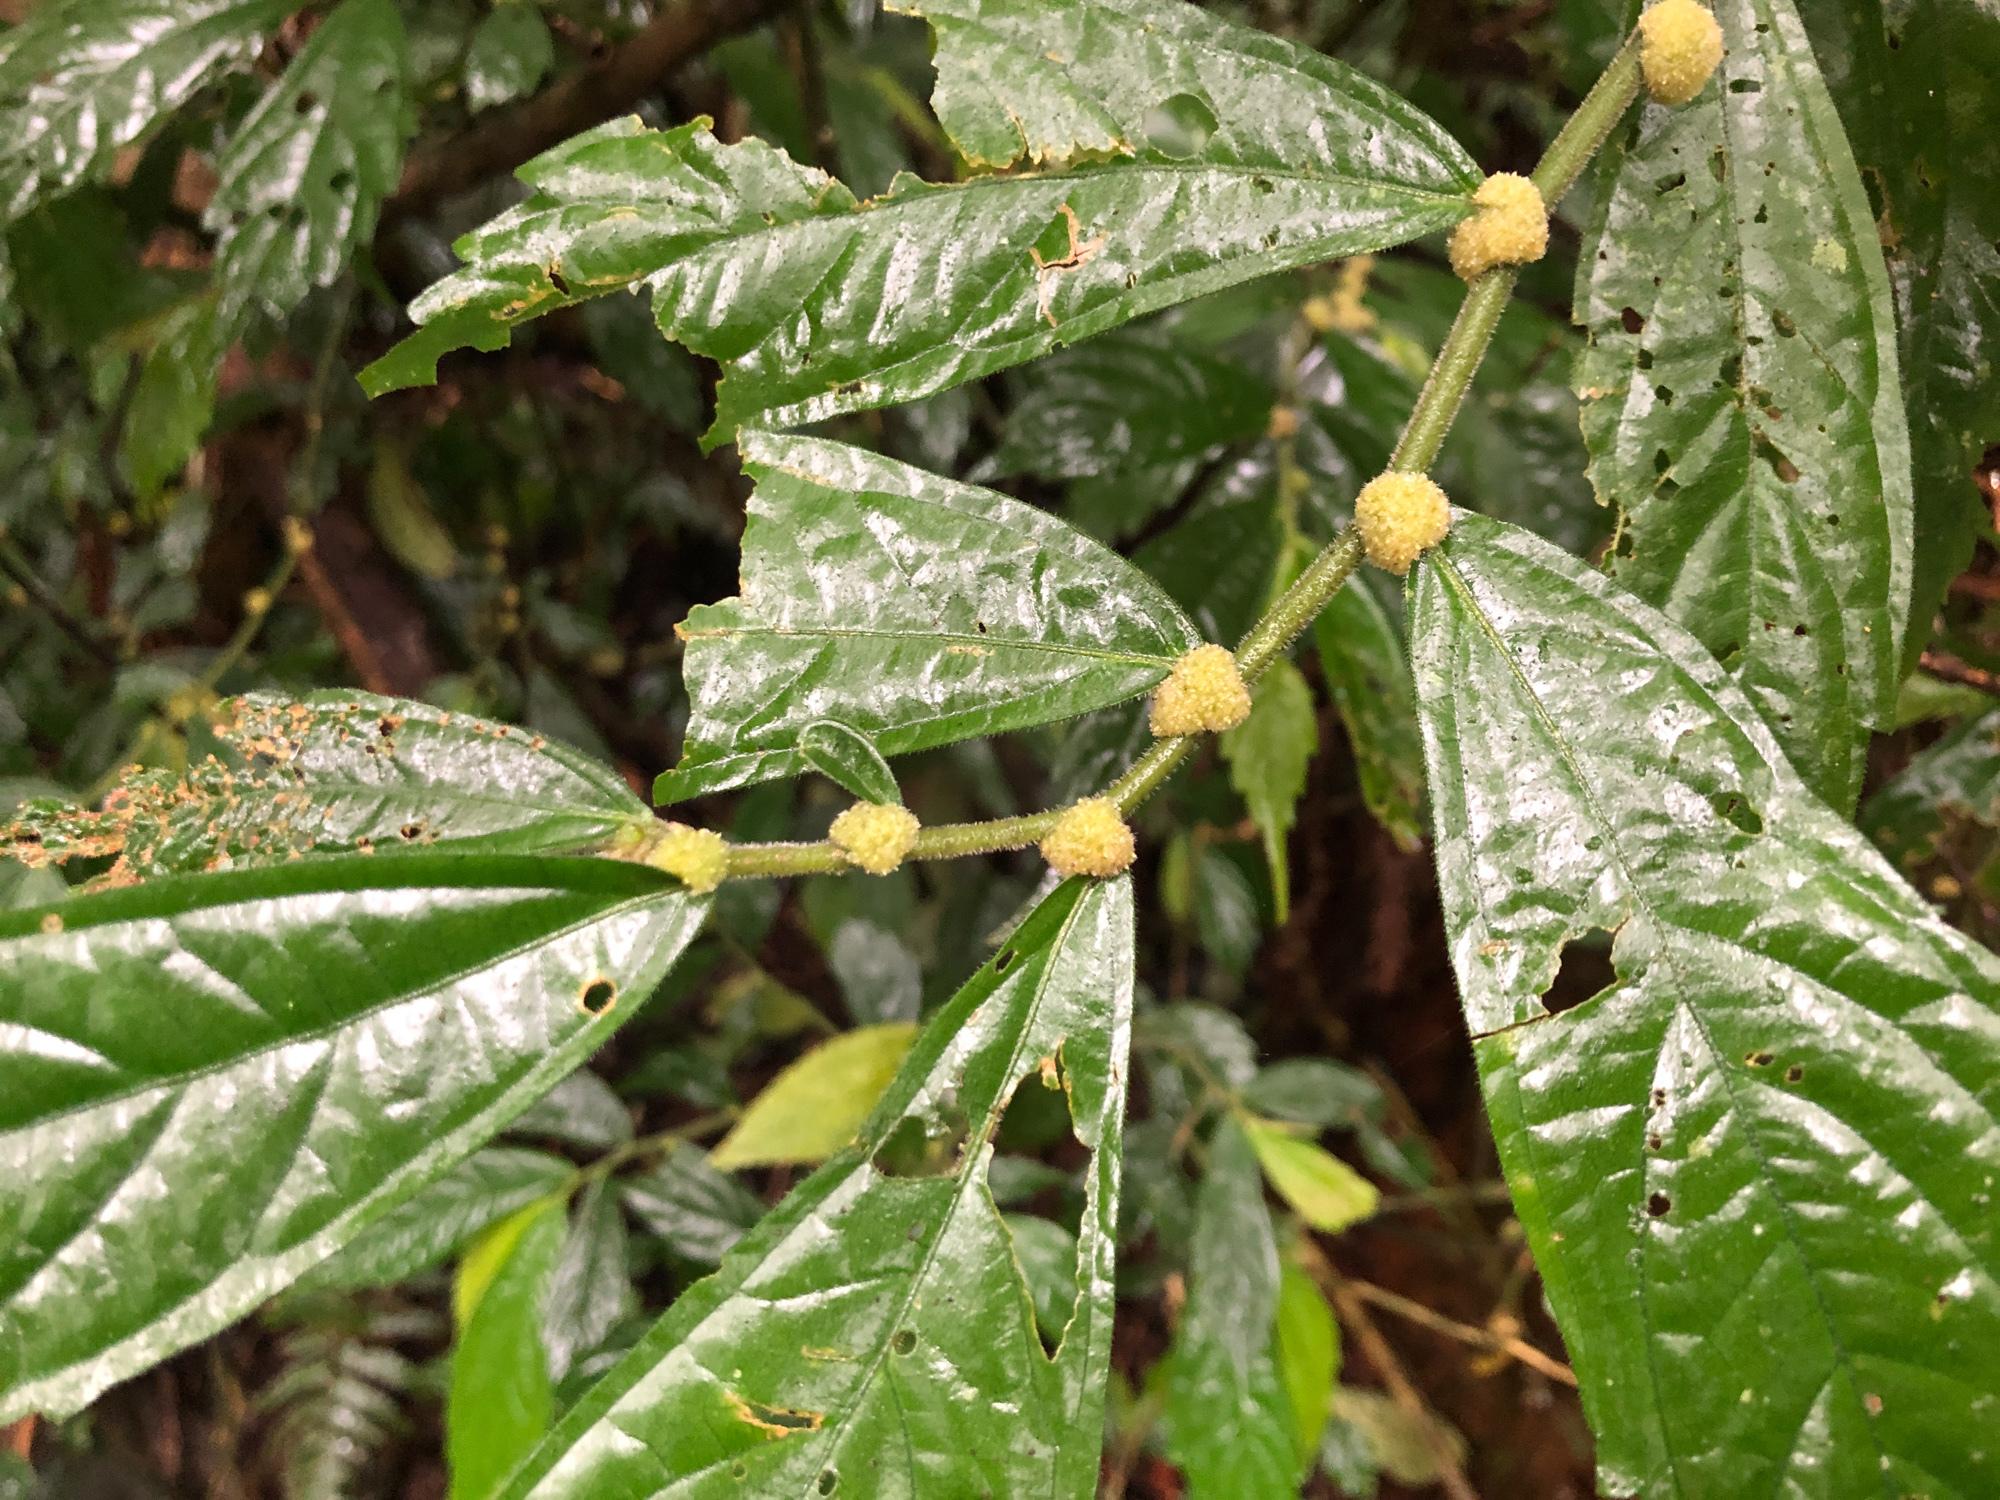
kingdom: Plantae
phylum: Tracheophyta
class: Magnoliopsida
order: Rosales
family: Urticaceae
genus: Elatostema
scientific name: Elatostema lineolatum
